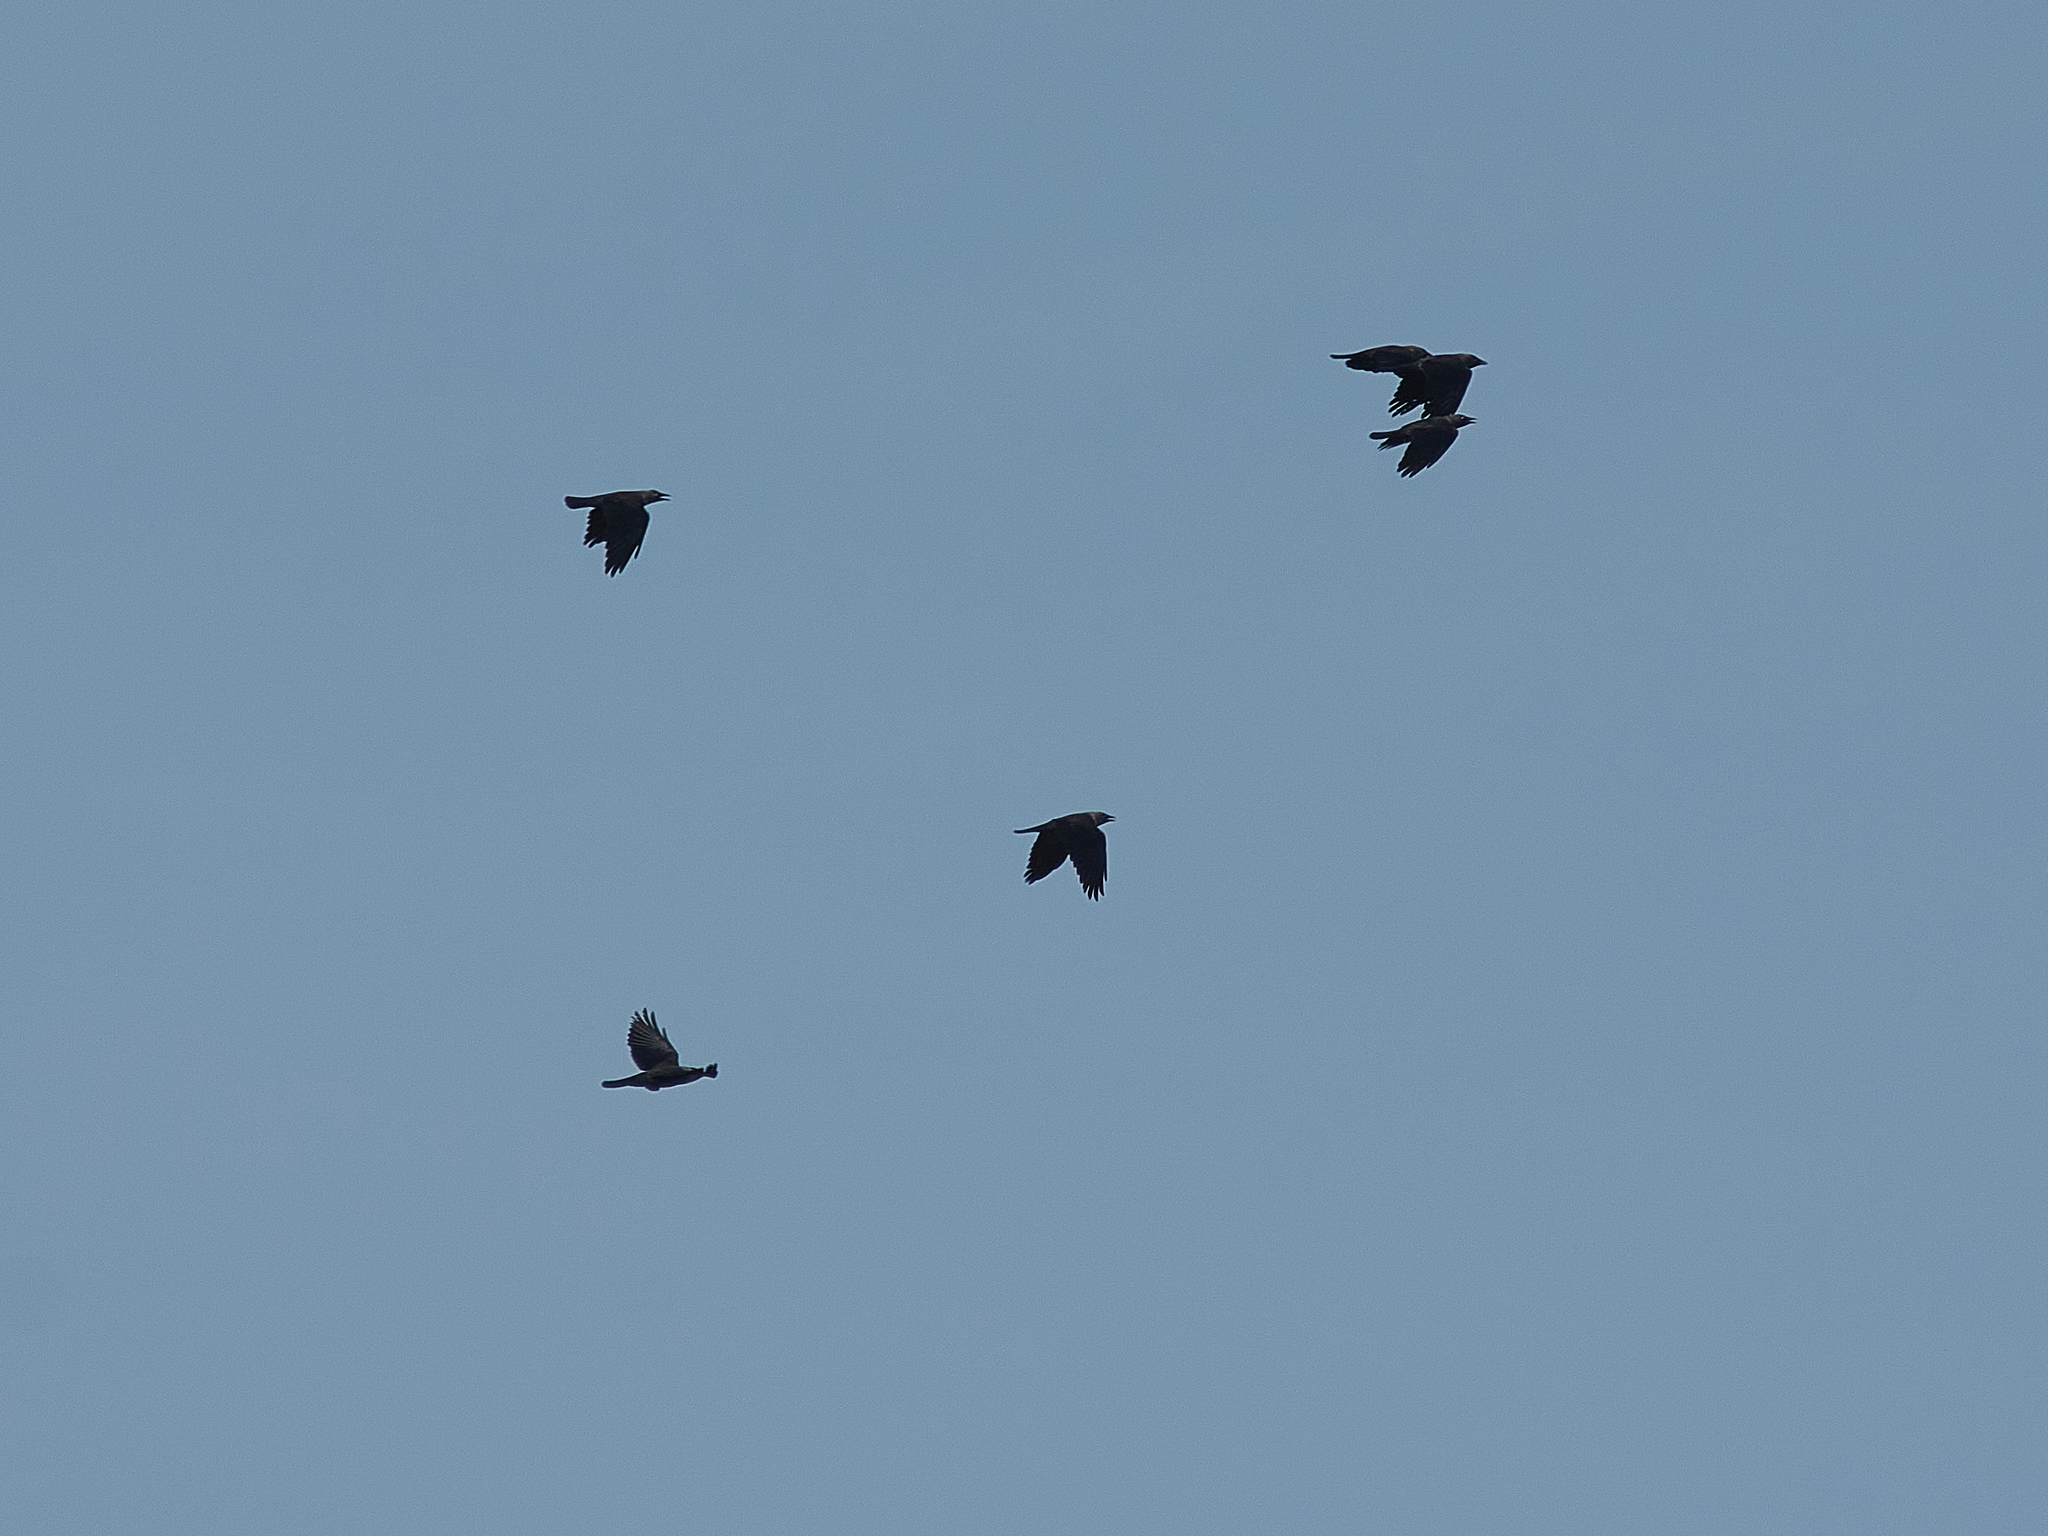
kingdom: Animalia
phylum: Chordata
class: Aves
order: Passeriformes
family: Corvidae
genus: Coloeus
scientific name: Coloeus monedula
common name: Western jackdaw
